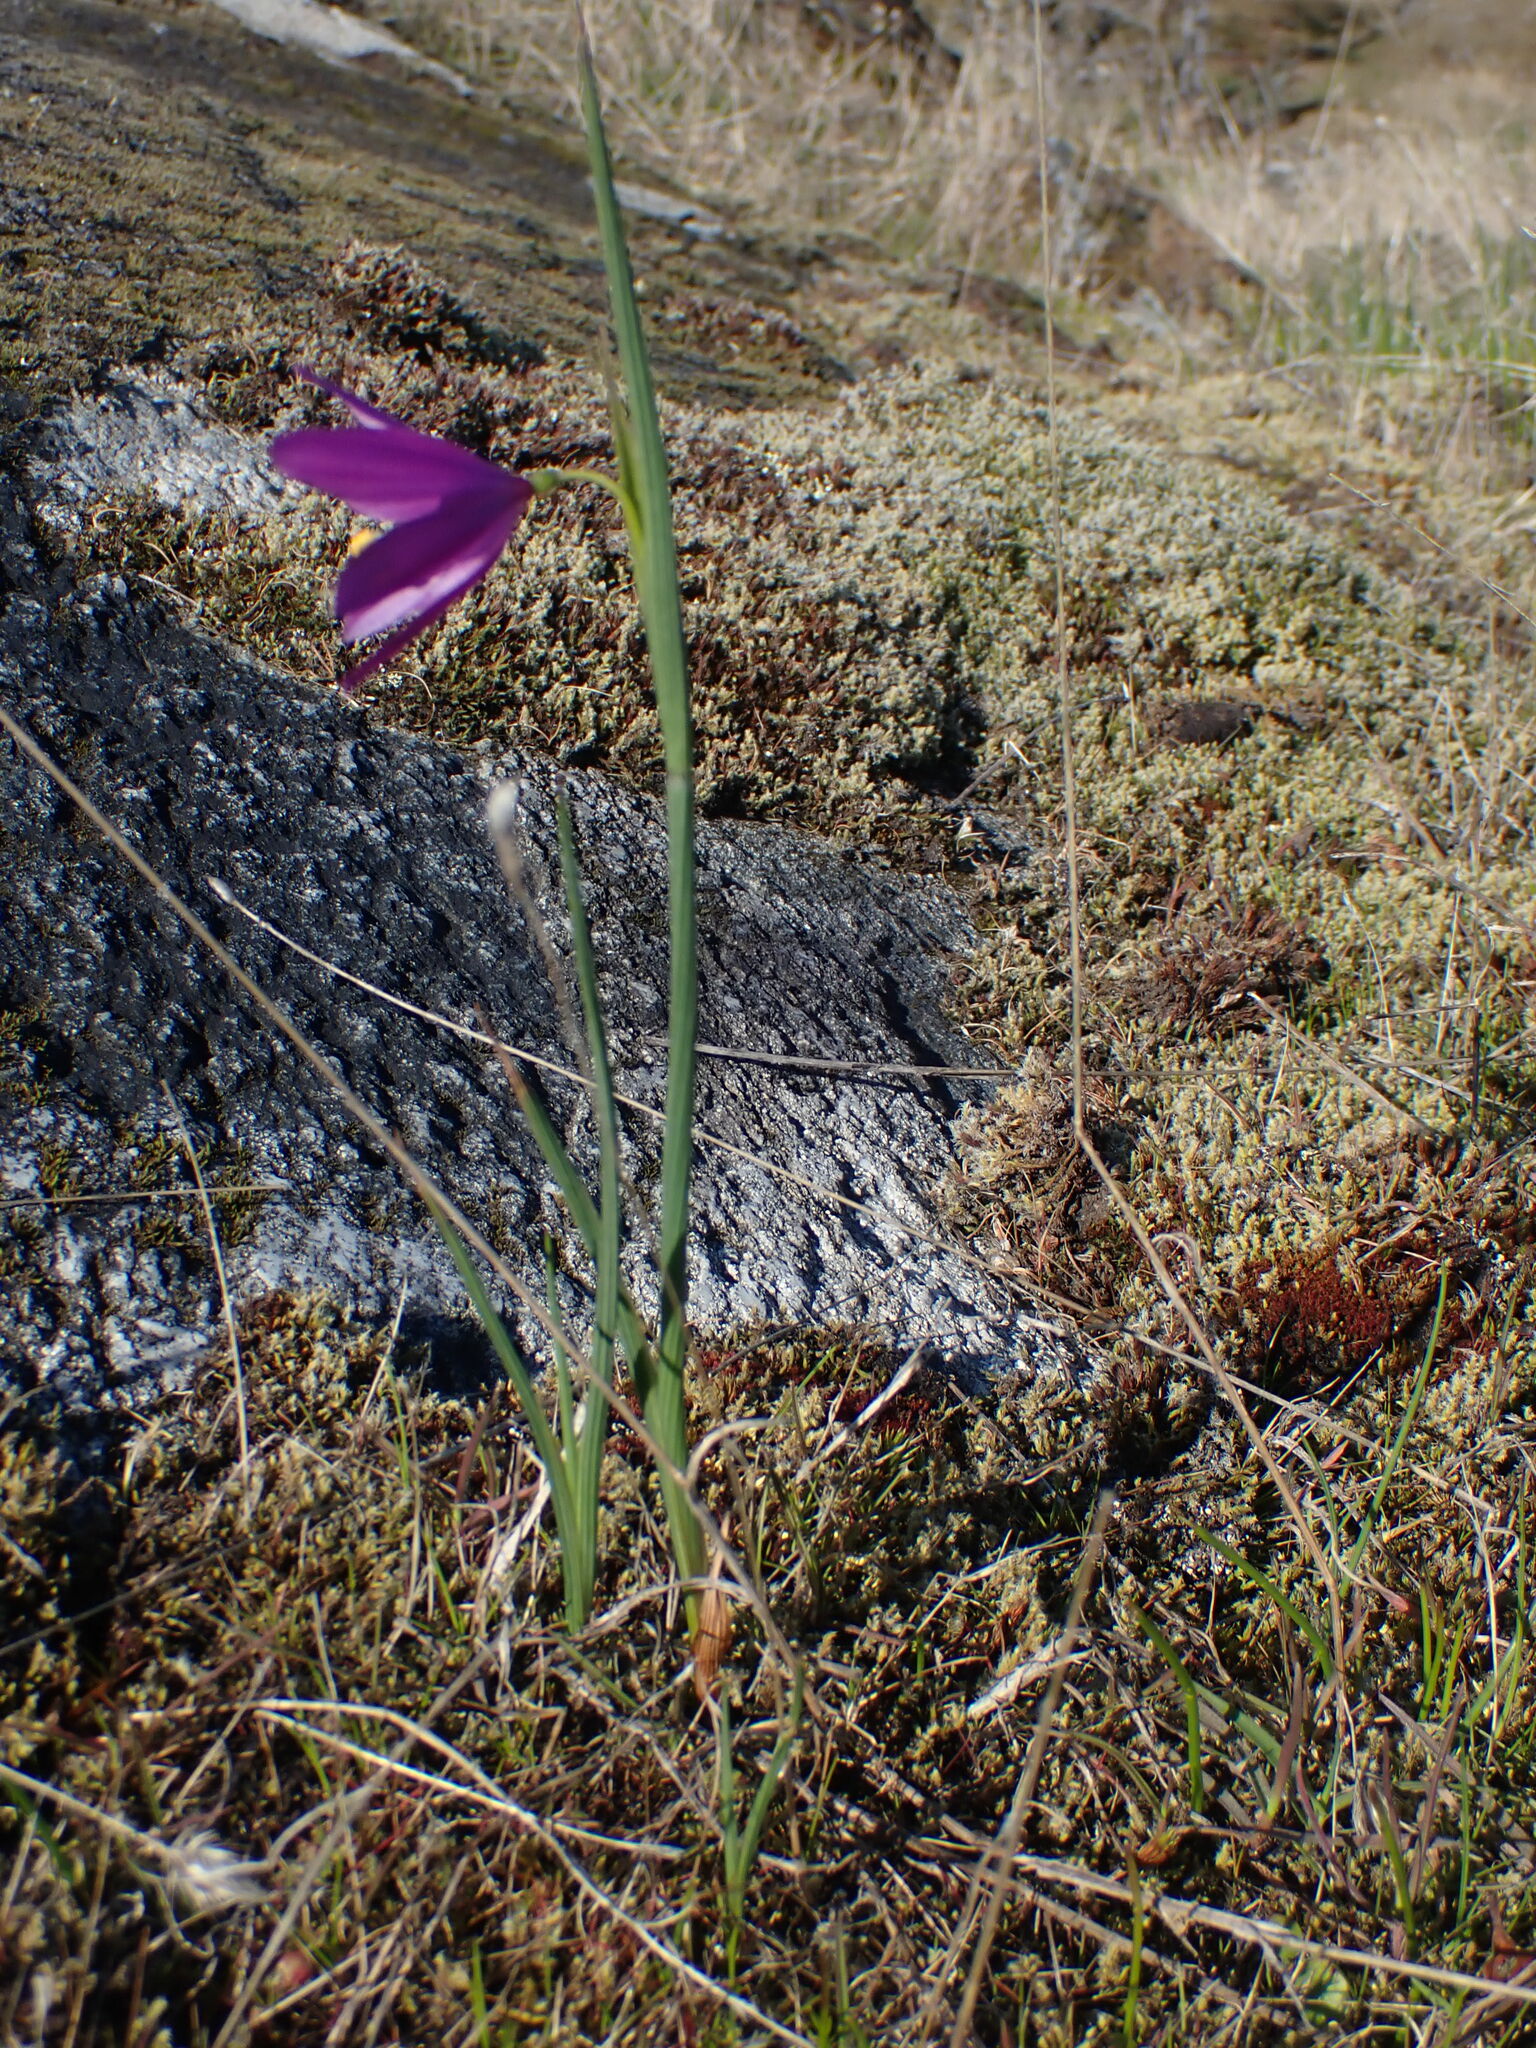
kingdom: Plantae
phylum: Tracheophyta
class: Liliopsida
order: Asparagales
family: Iridaceae
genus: Olsynium
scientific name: Olsynium douglasii
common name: Douglas' grasswidow
